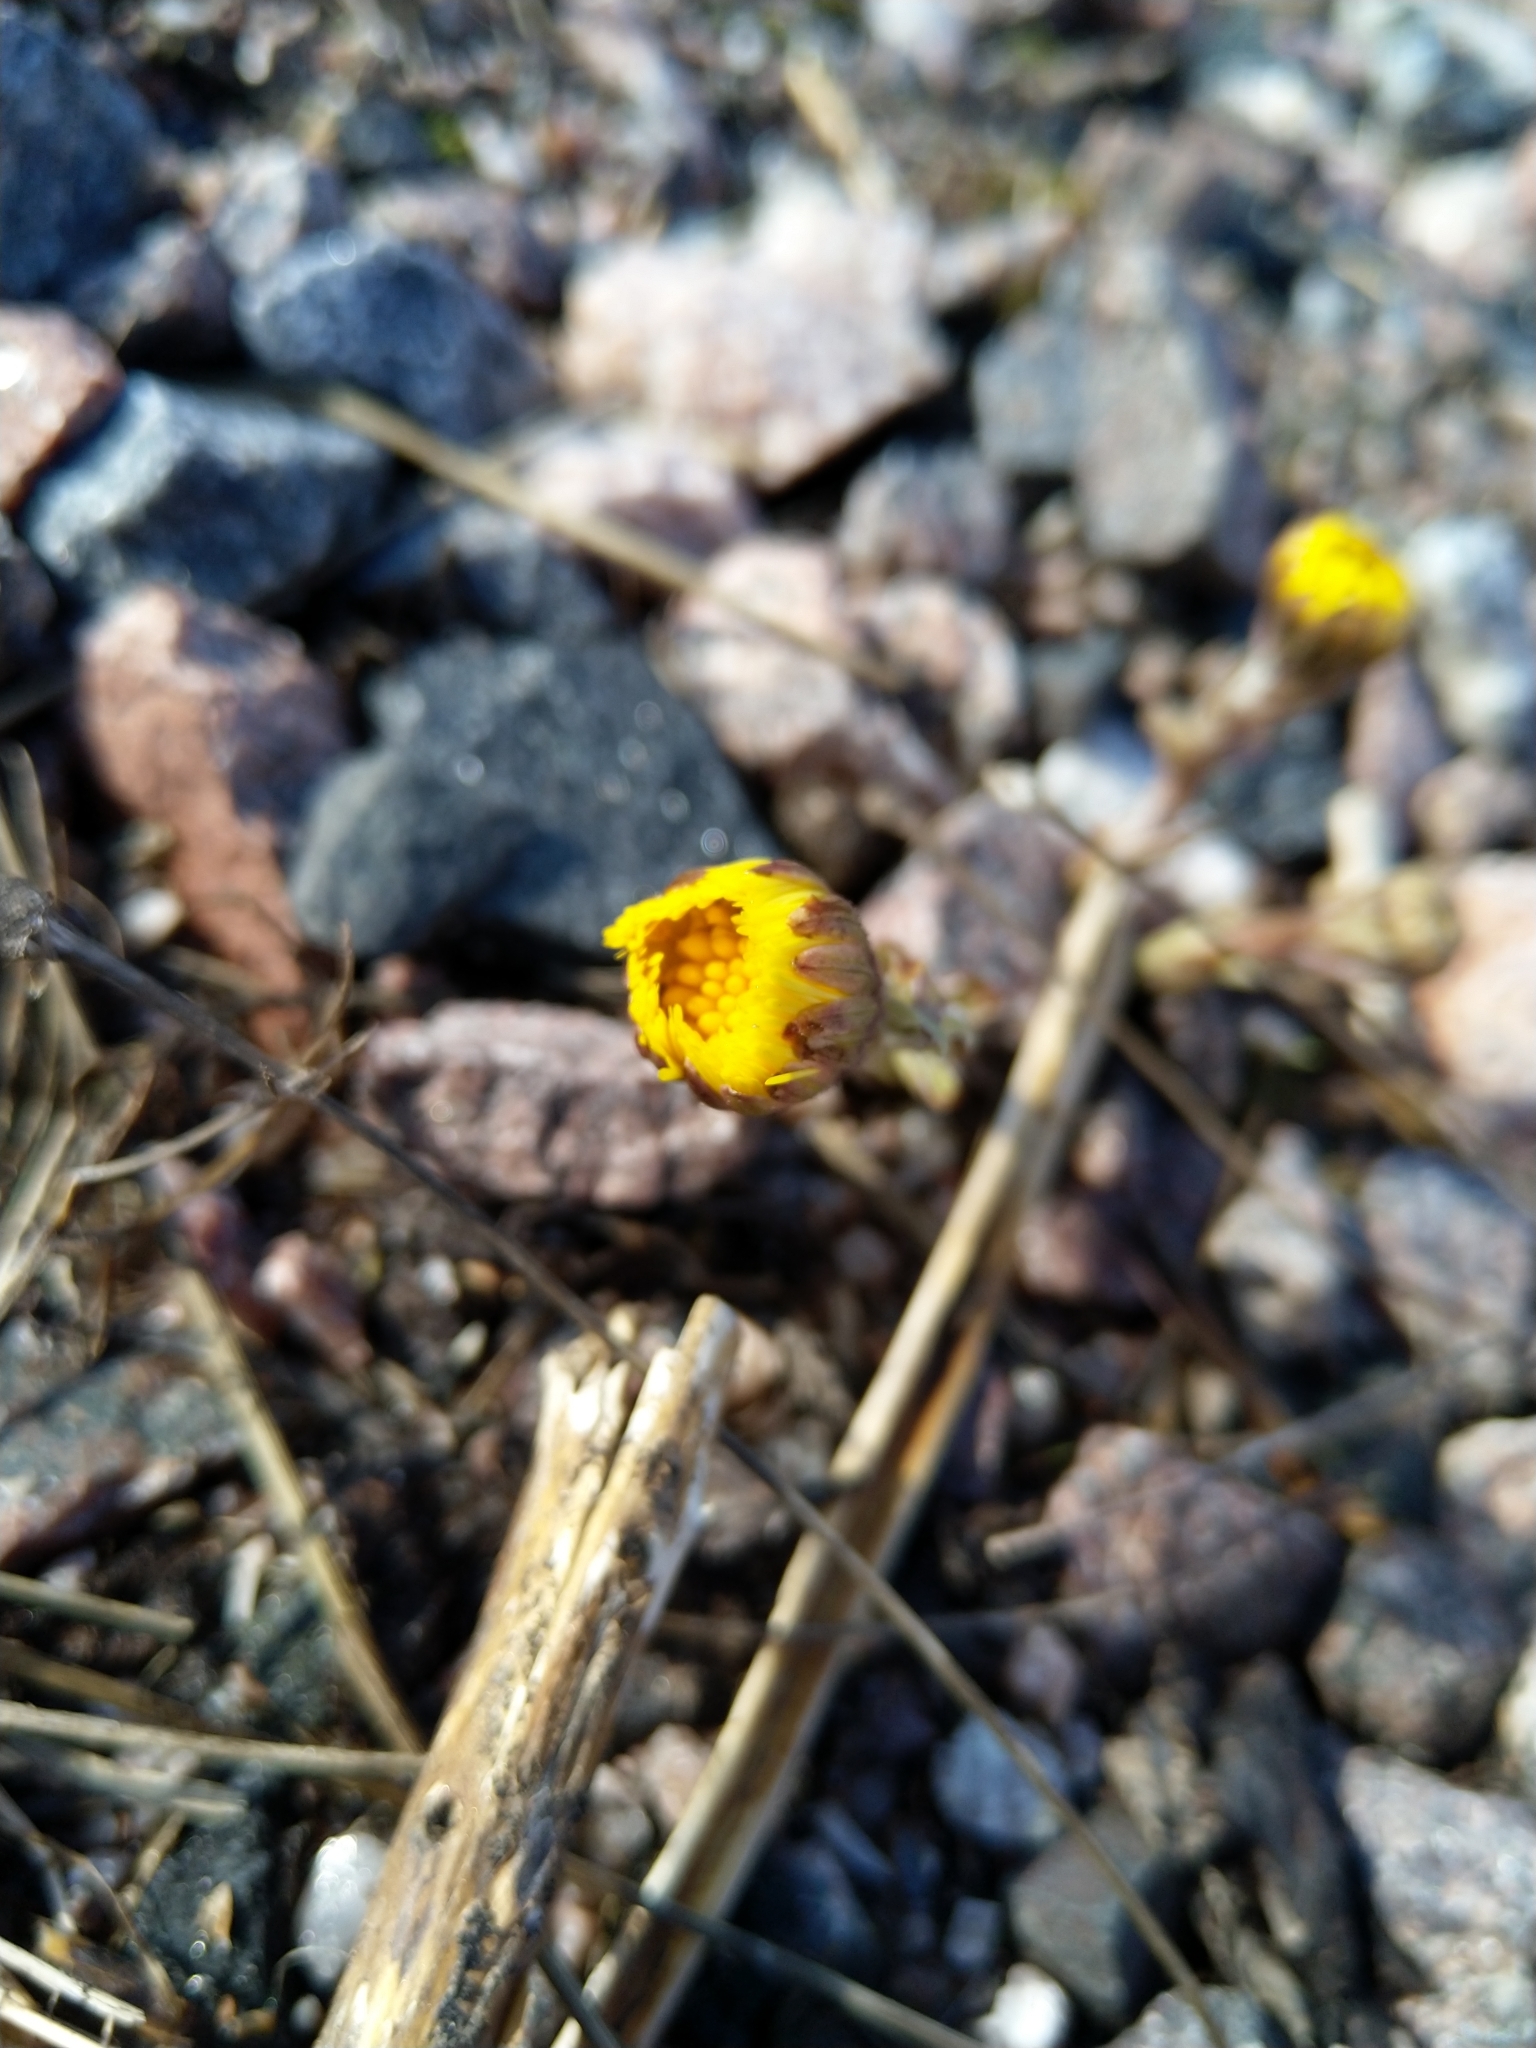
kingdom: Plantae
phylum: Tracheophyta
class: Magnoliopsida
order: Asterales
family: Asteraceae
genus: Tussilago
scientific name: Tussilago farfara
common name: Coltsfoot
